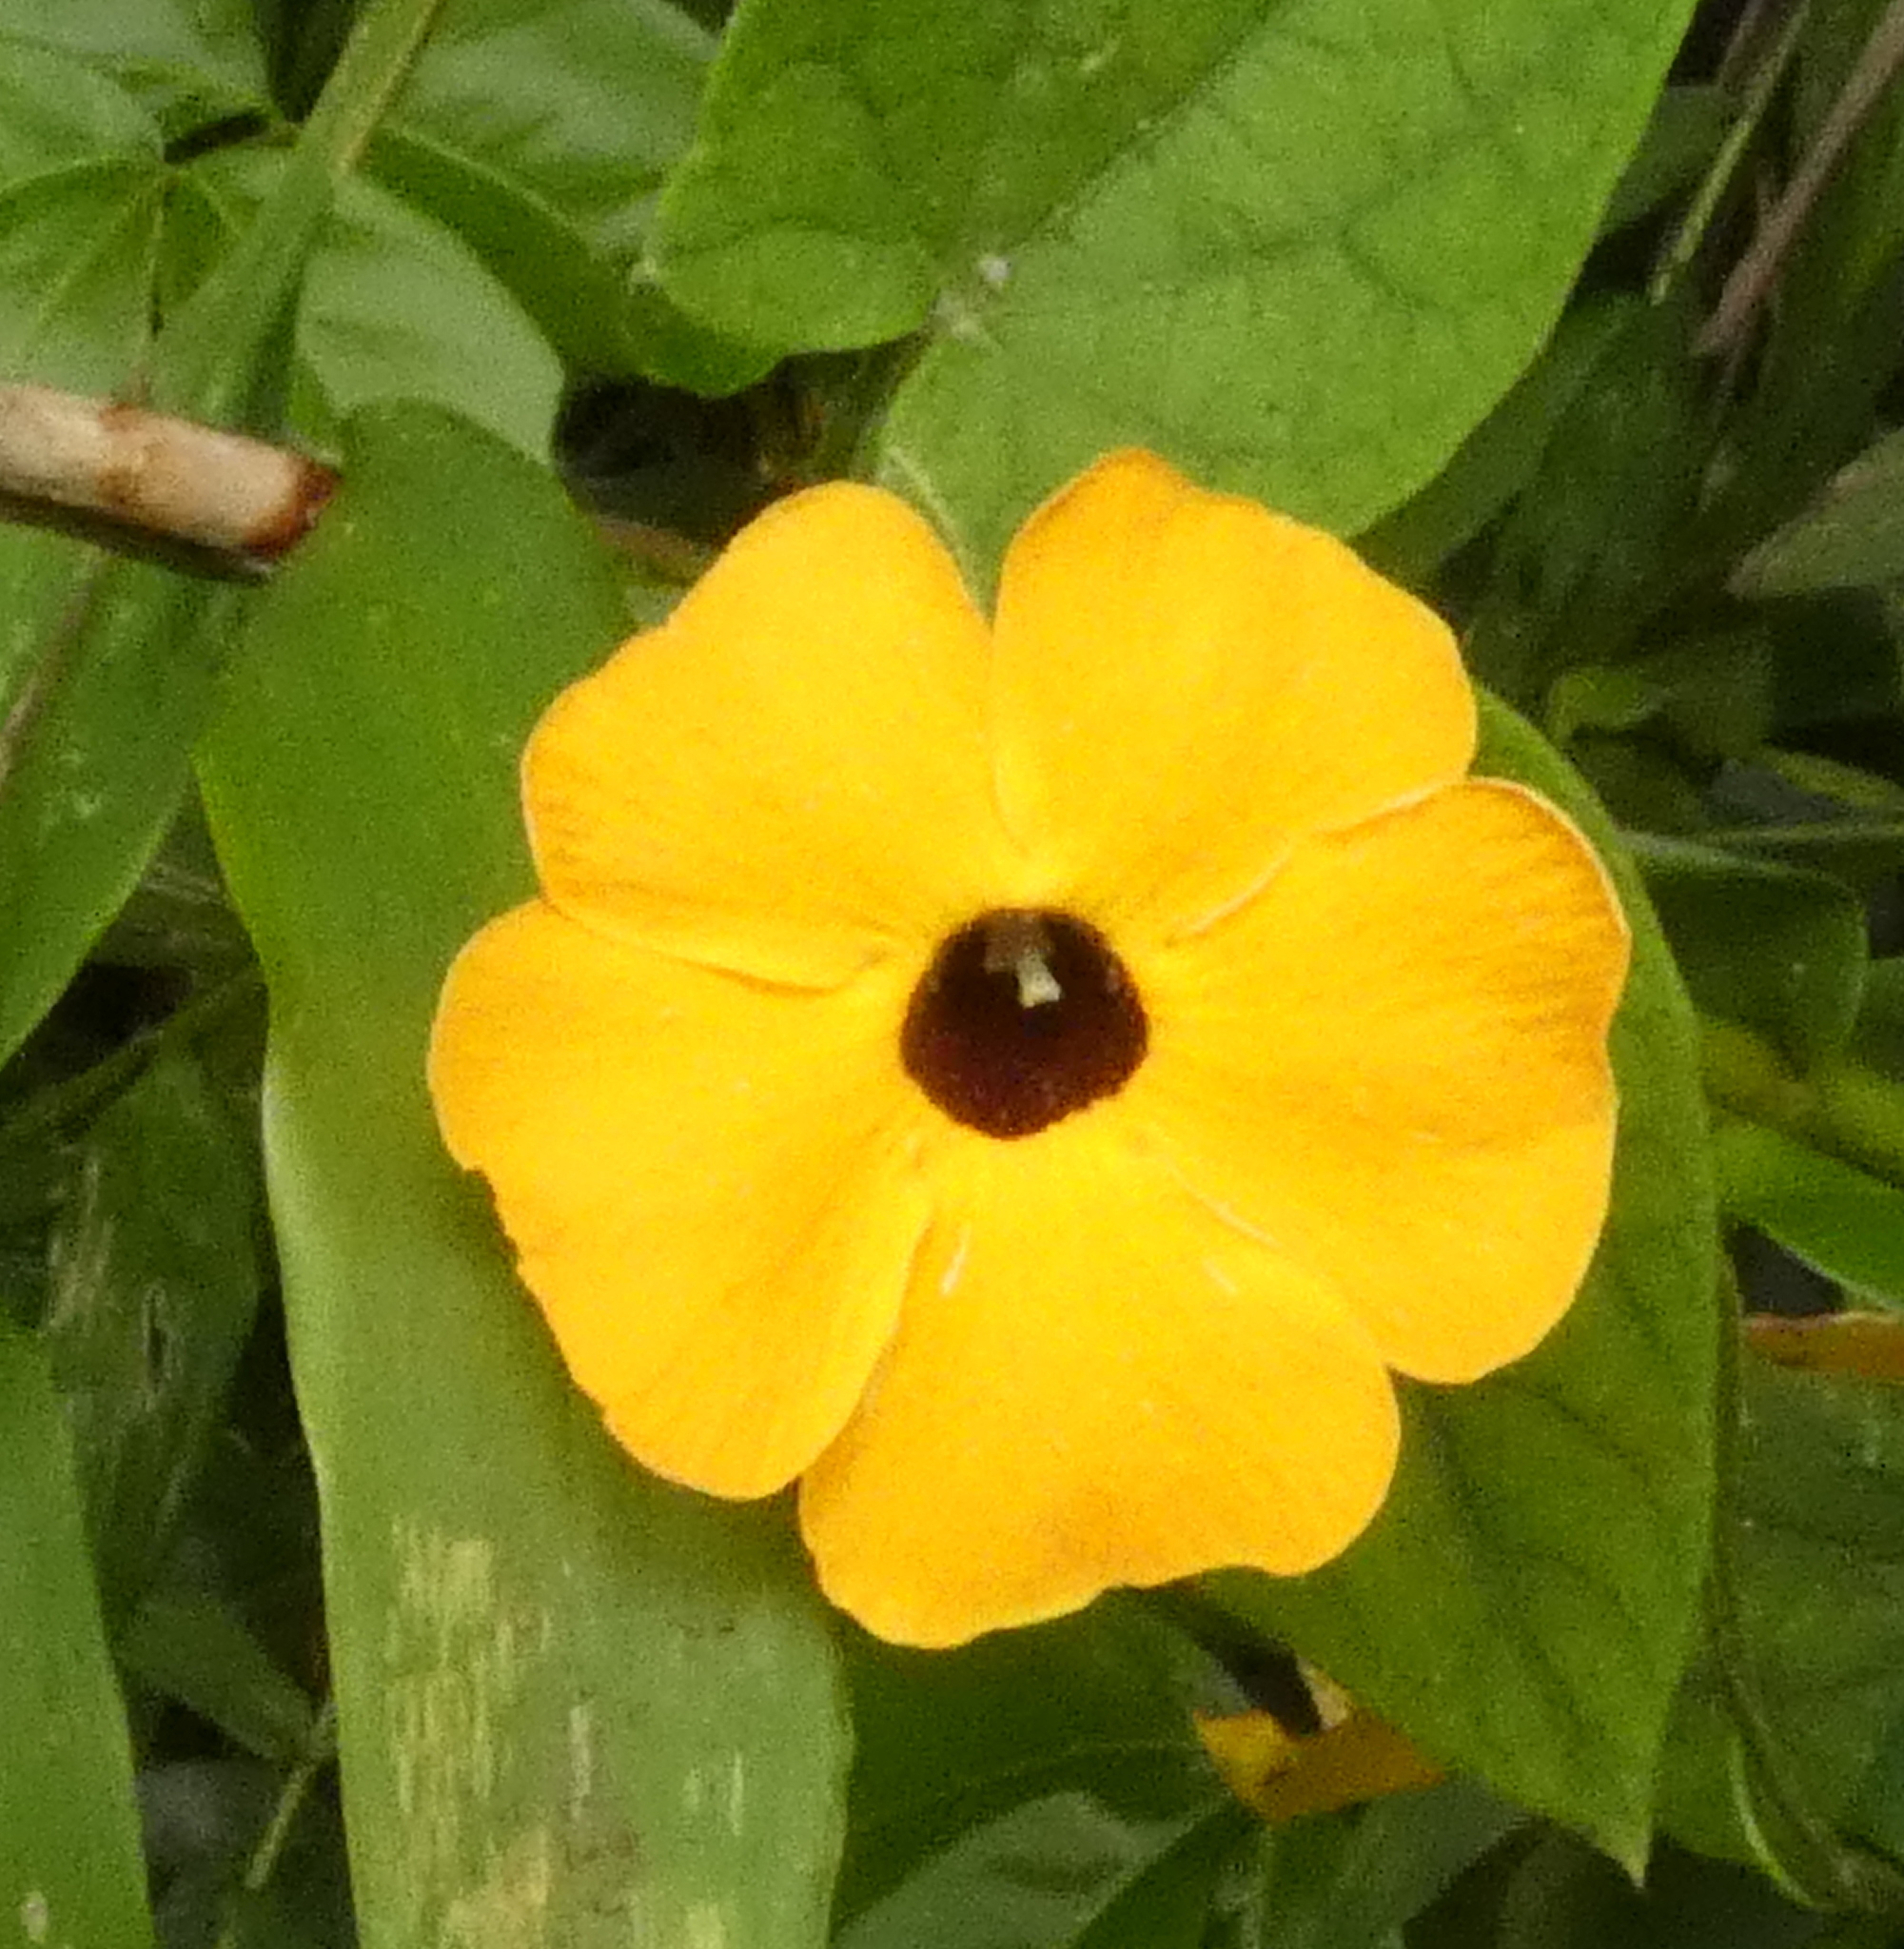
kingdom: Plantae
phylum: Tracheophyta
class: Magnoliopsida
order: Lamiales
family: Acanthaceae
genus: Thunbergia
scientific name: Thunbergia alata
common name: Blackeyed susan vine
